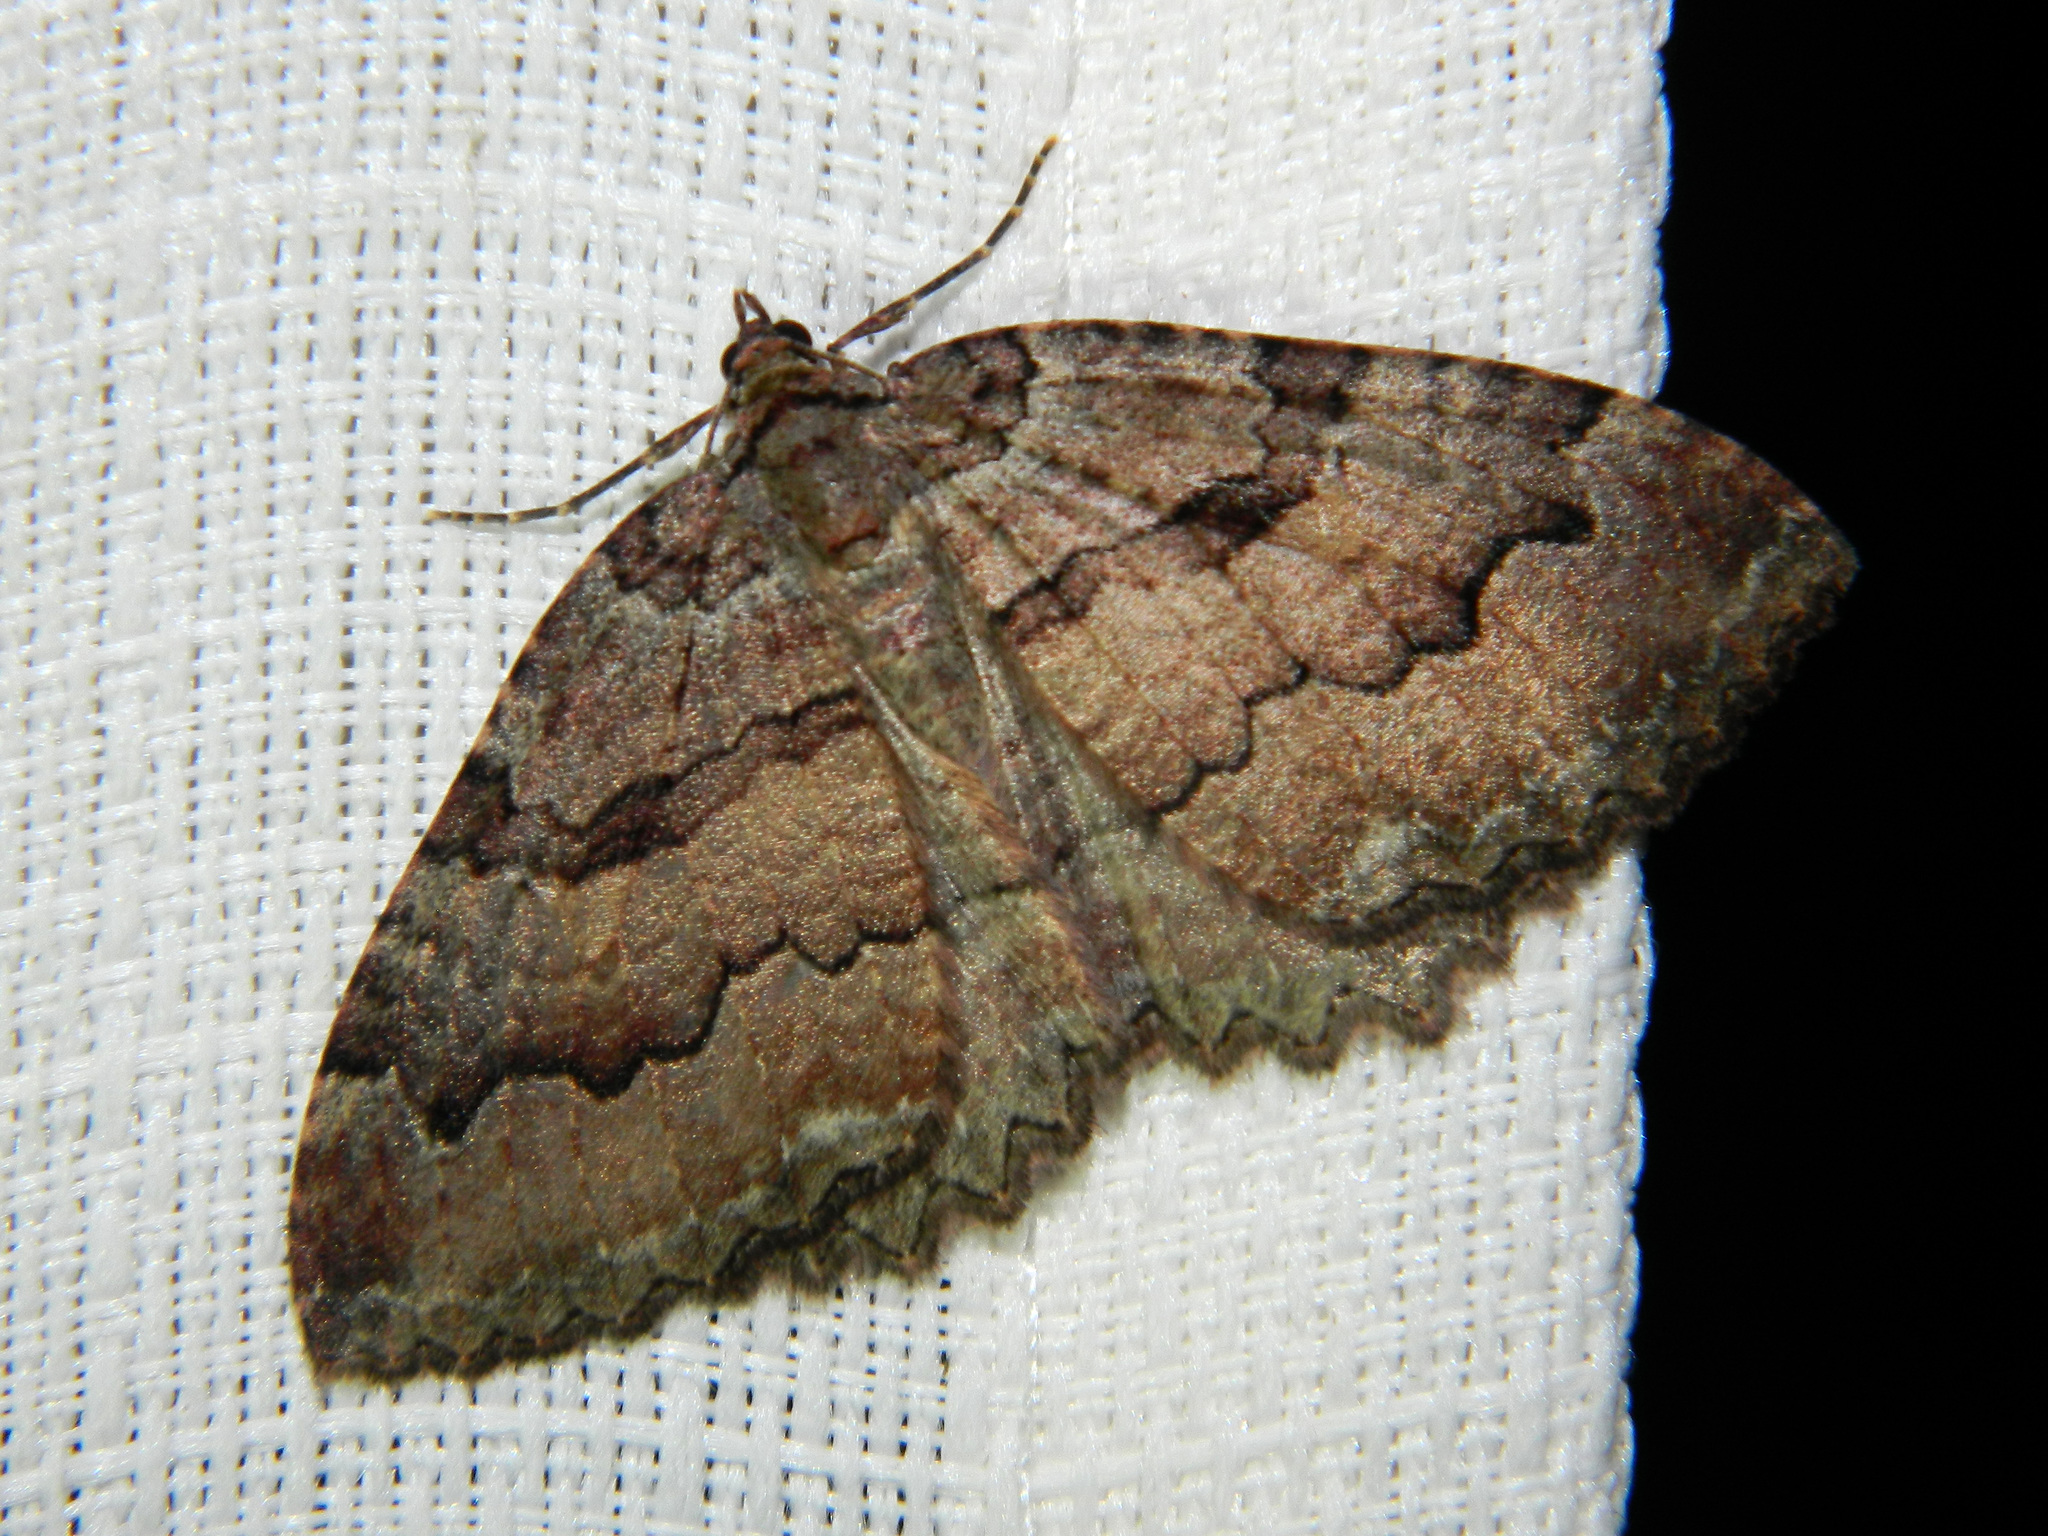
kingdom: Animalia
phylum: Arthropoda
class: Insecta
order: Lepidoptera
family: Geometridae
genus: Triphosa
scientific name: Triphosa haesitata
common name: Tissue moth
